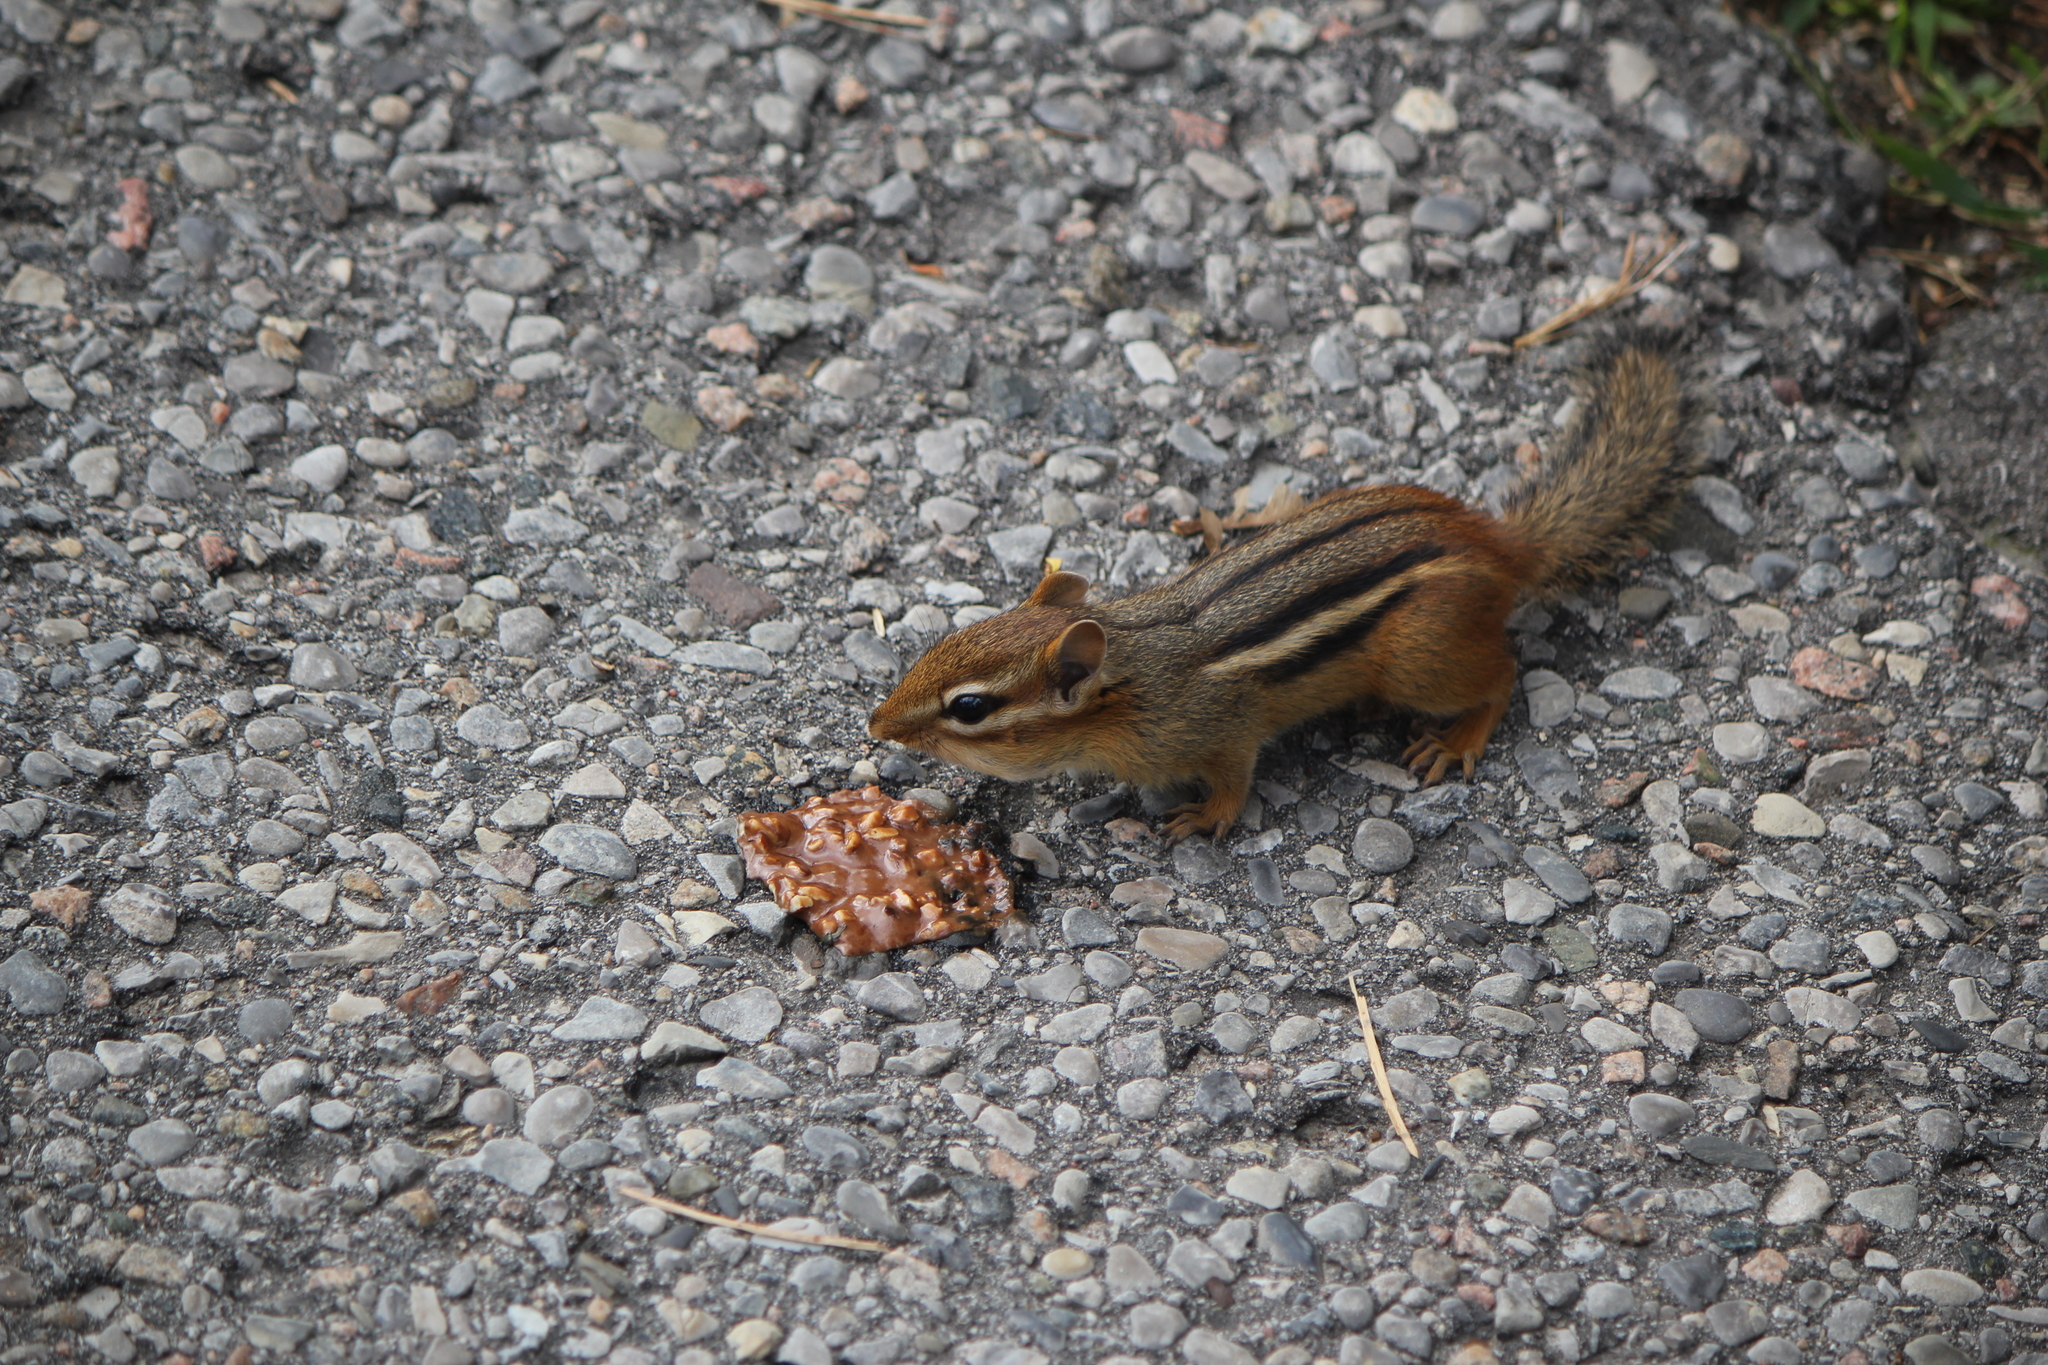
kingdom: Animalia
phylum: Chordata
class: Mammalia
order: Rodentia
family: Sciuridae
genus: Tamias
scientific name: Tamias striatus
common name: Eastern chipmunk
